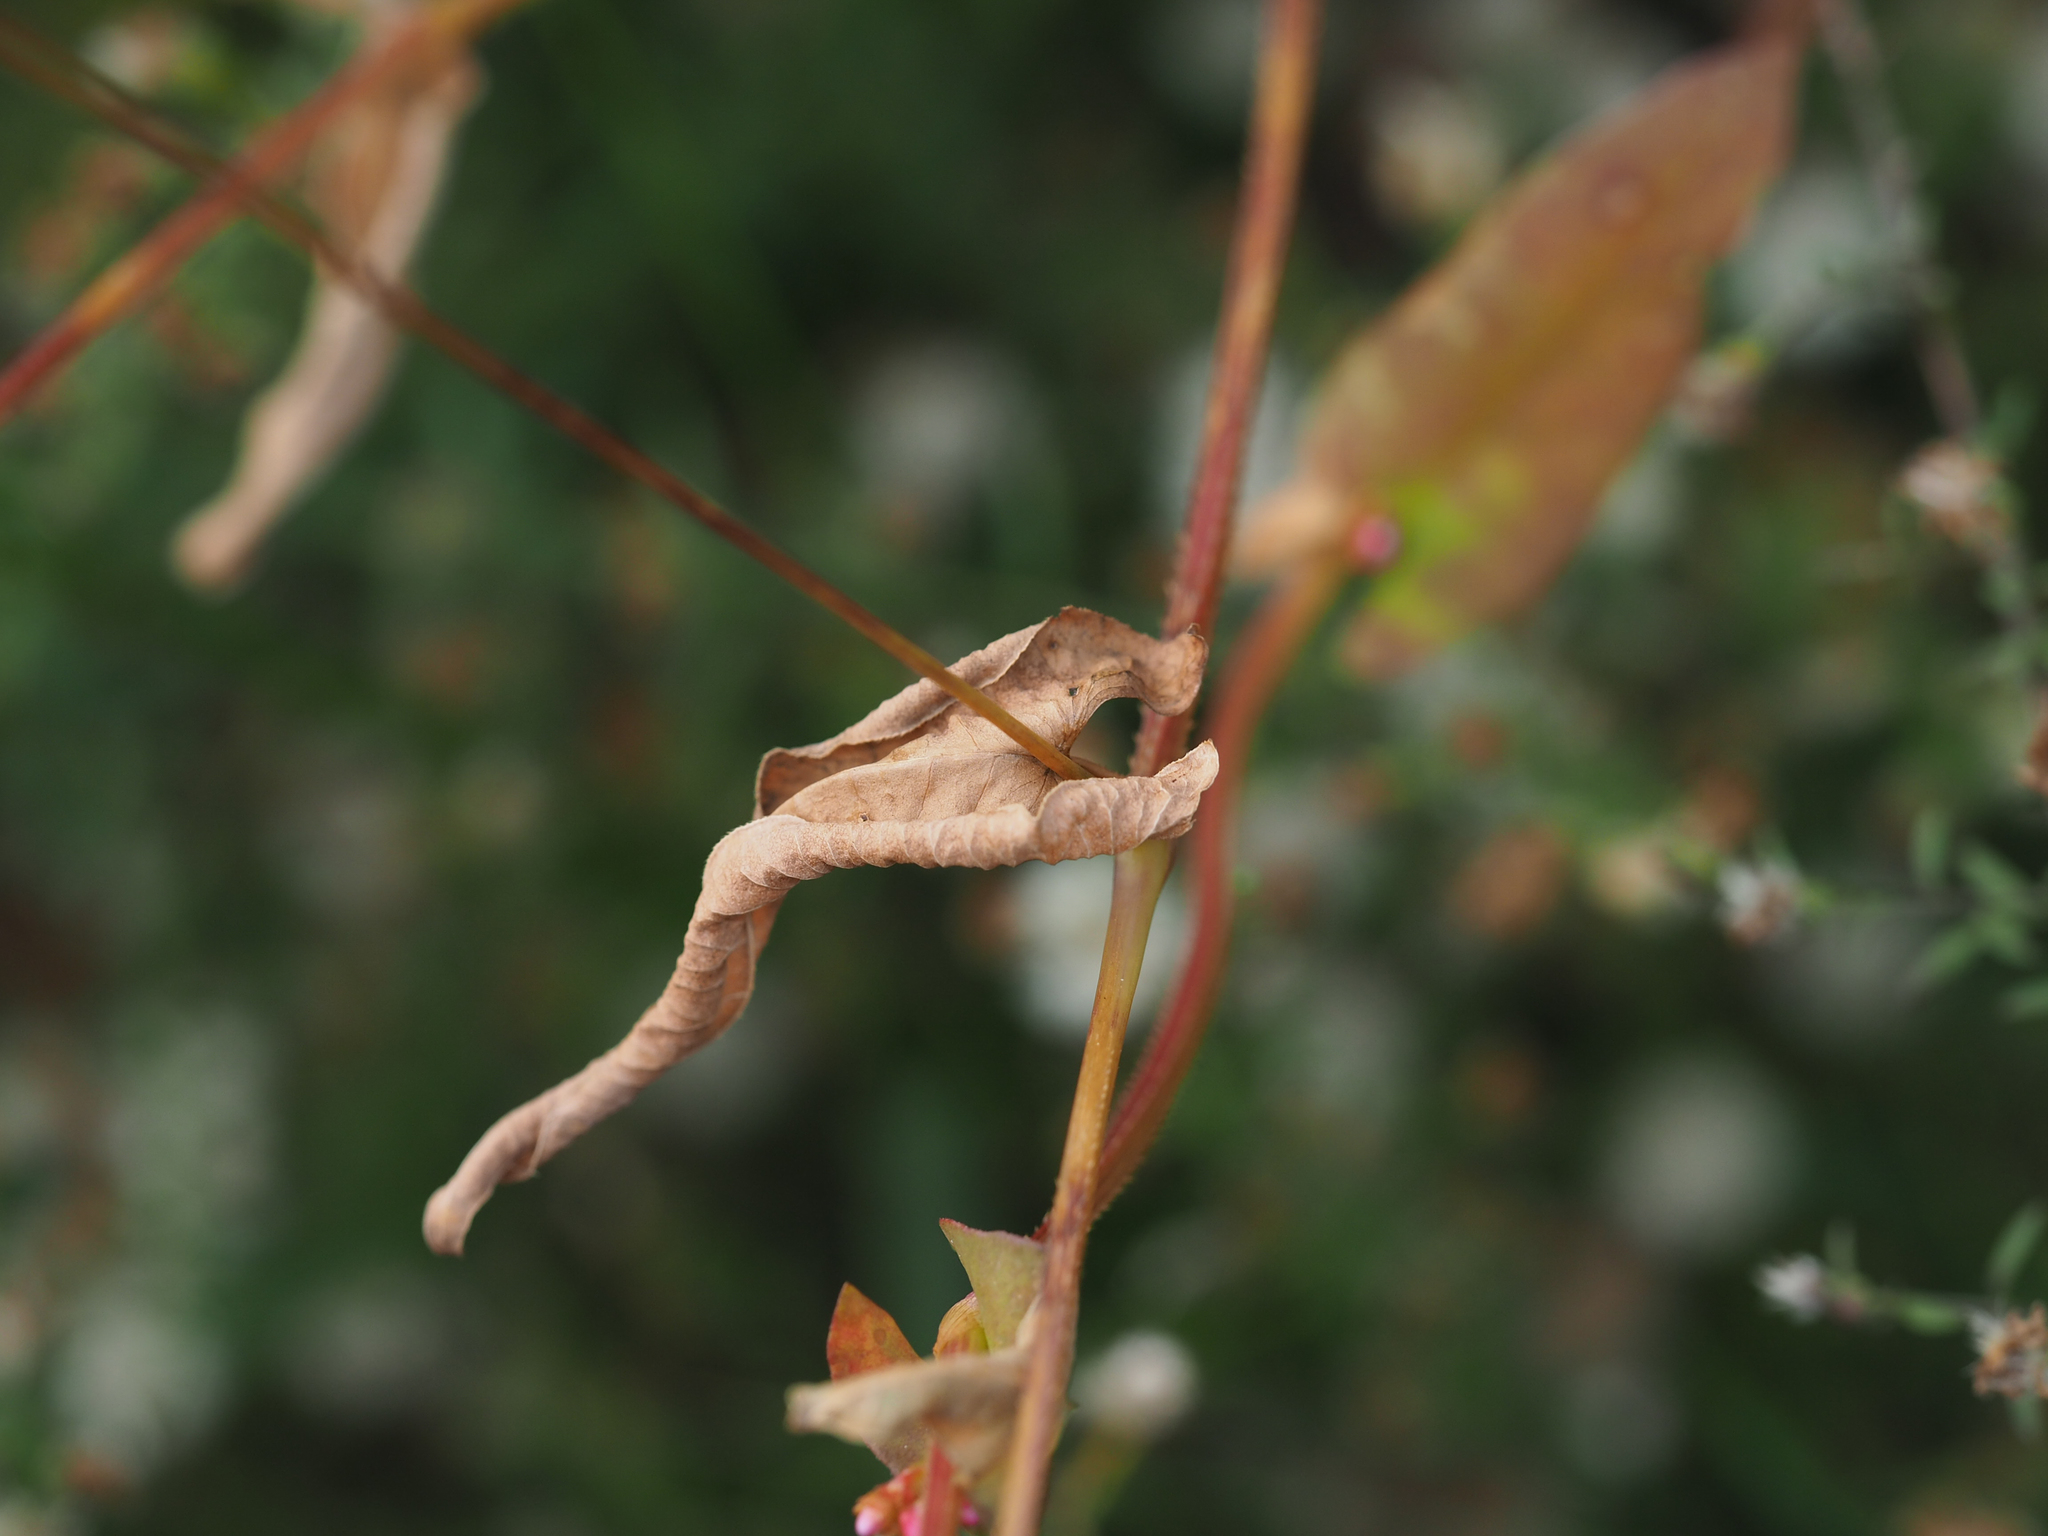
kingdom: Plantae
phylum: Tracheophyta
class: Magnoliopsida
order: Caryophyllales
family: Polygonaceae
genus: Persicaria
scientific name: Persicaria sagittata
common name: American tearthumb
